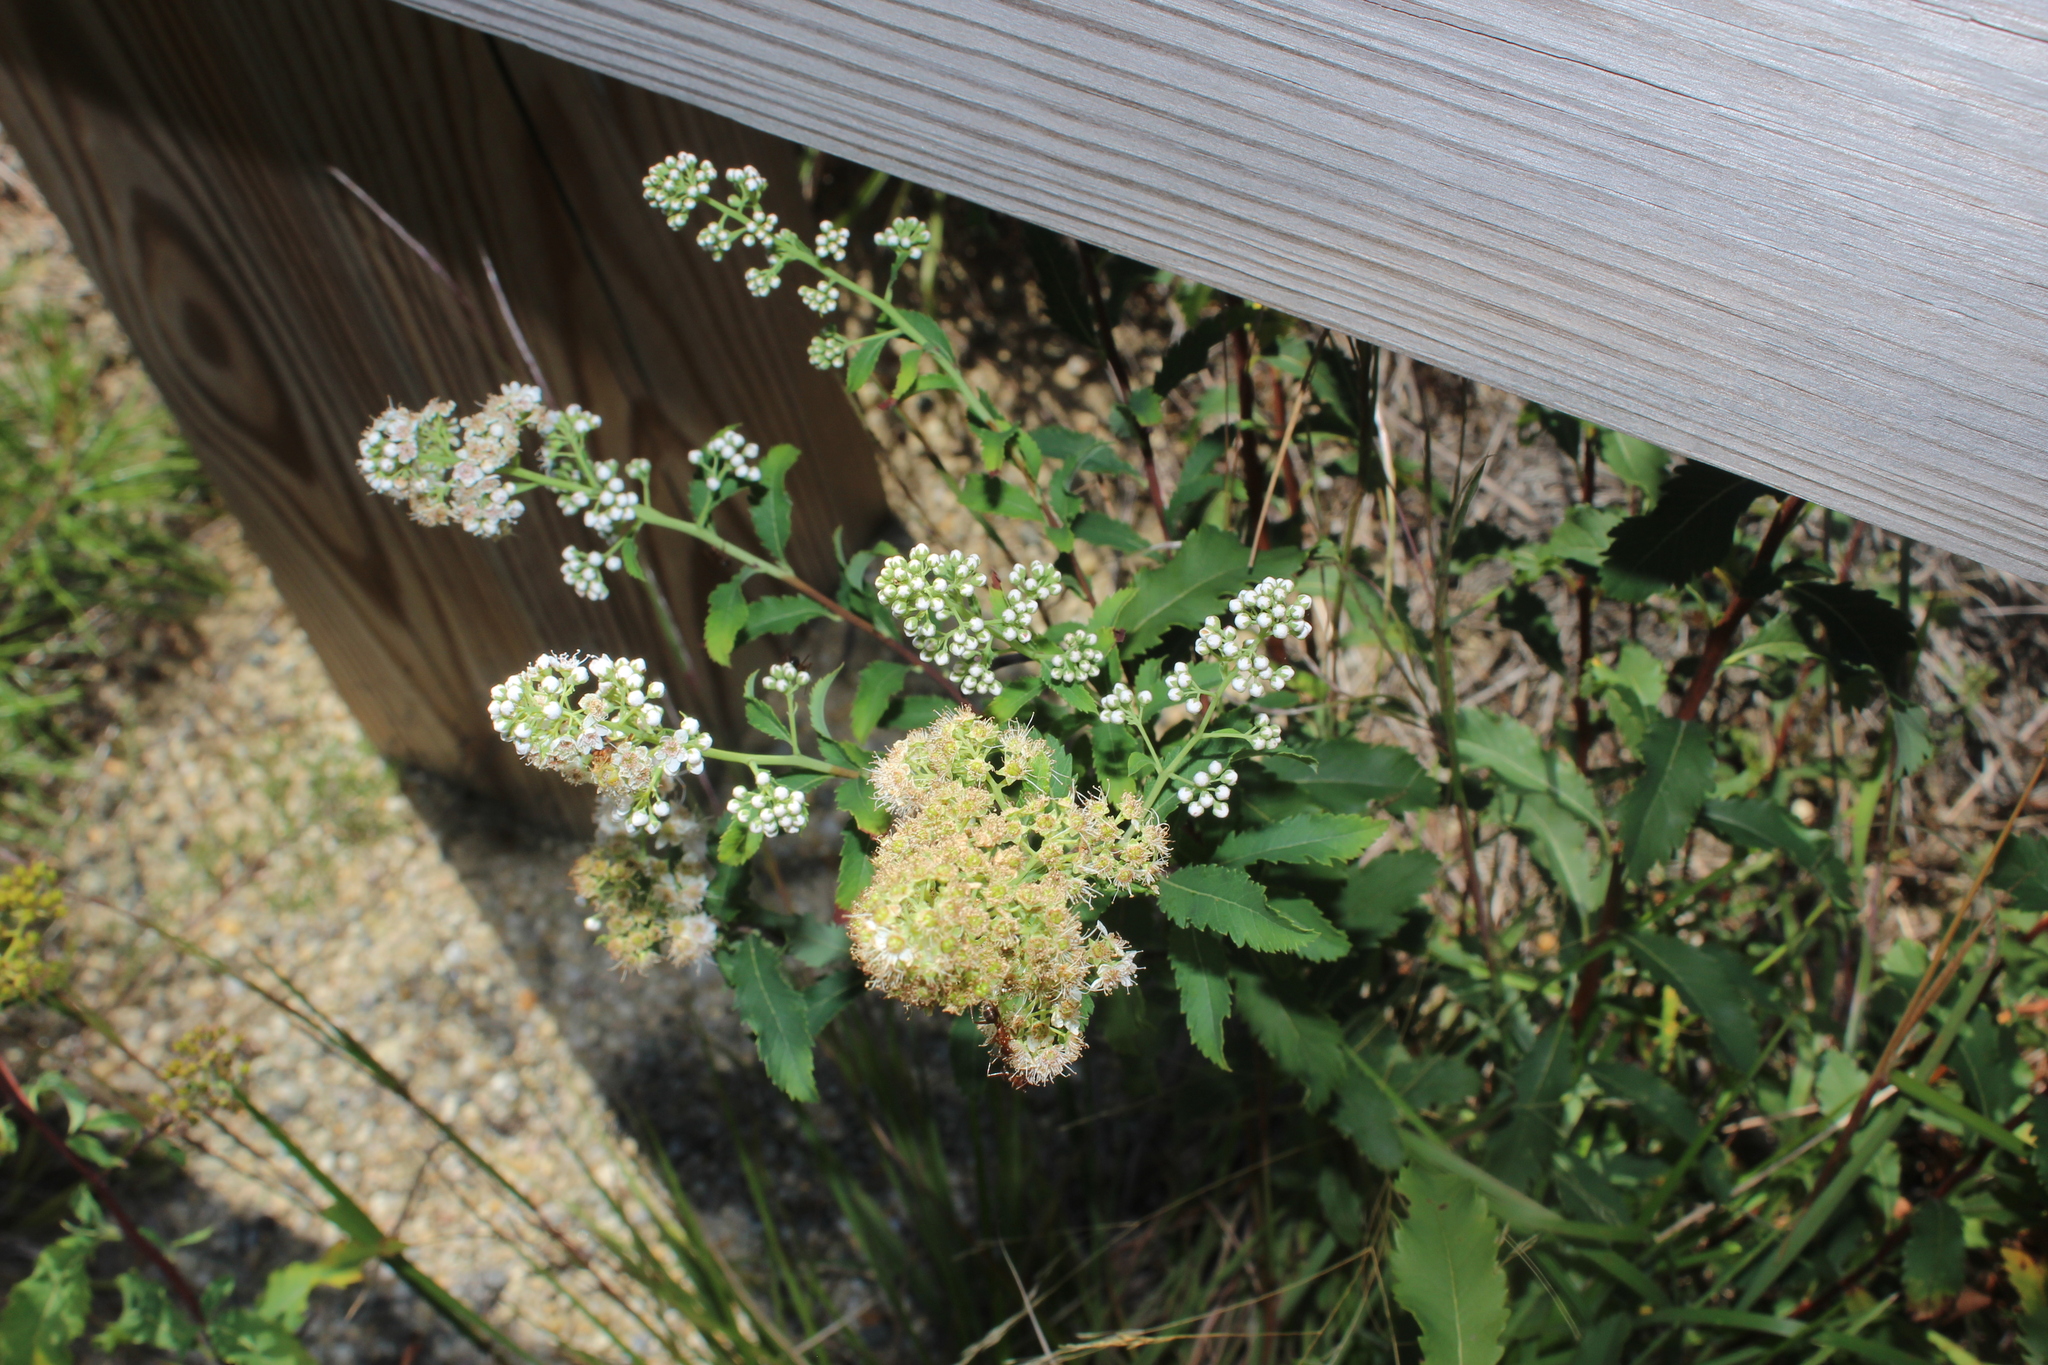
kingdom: Plantae
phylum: Tracheophyta
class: Magnoliopsida
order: Rosales
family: Rosaceae
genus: Spiraea
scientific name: Spiraea alba
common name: Pale bridewort
